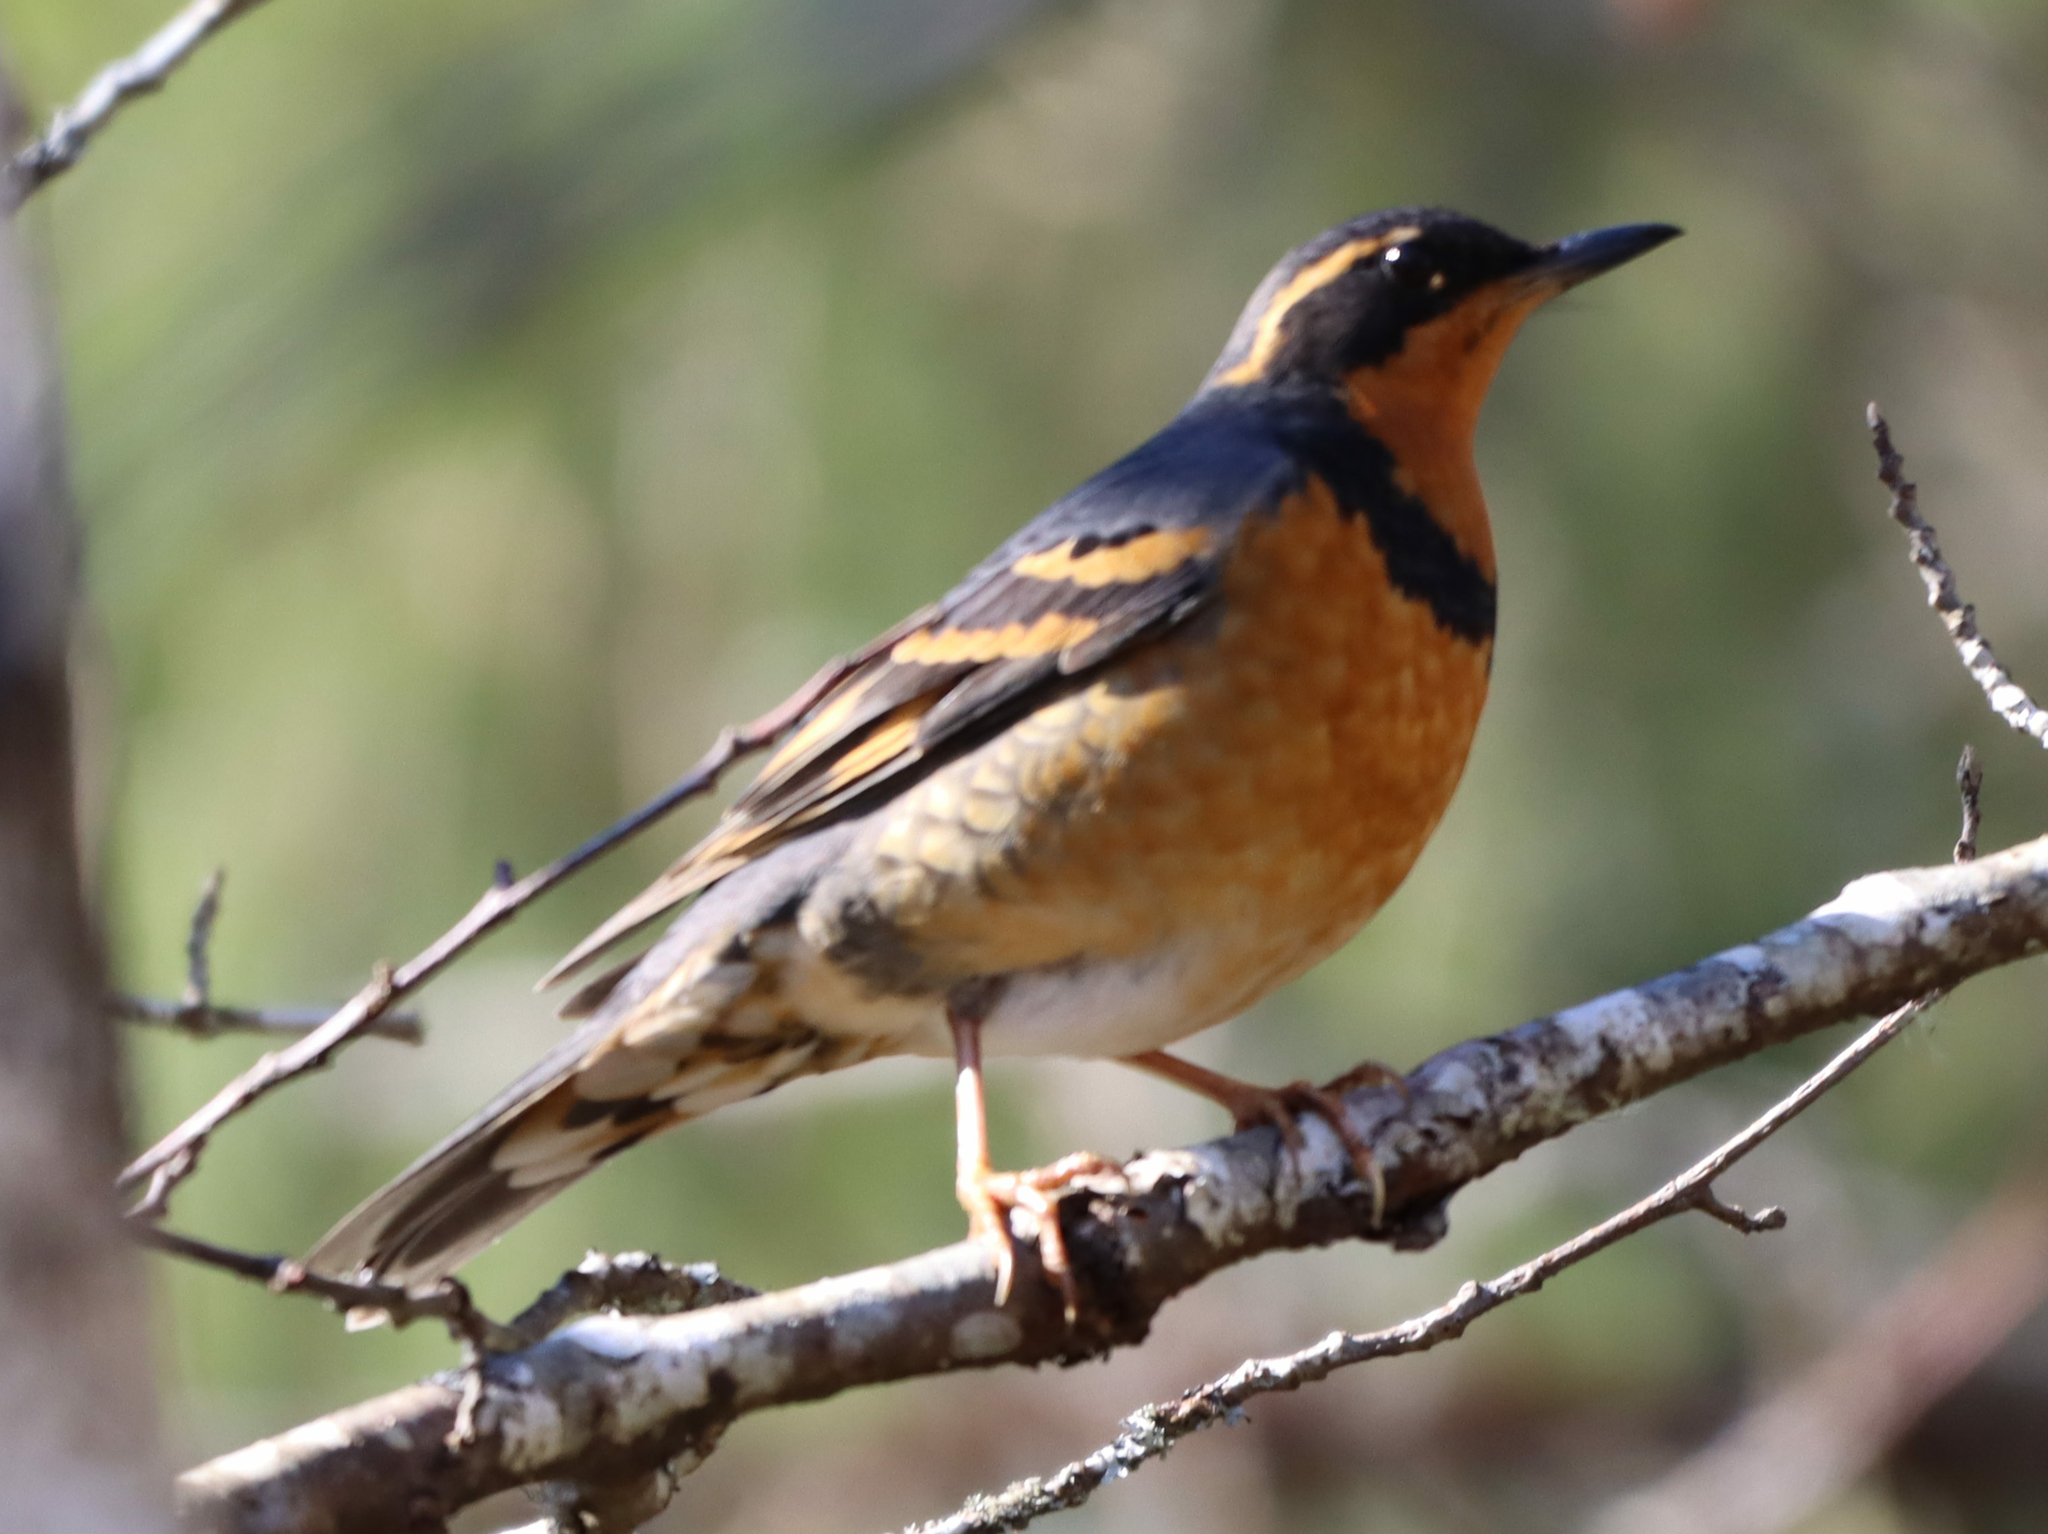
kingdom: Animalia
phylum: Chordata
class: Aves
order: Passeriformes
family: Turdidae
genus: Ixoreus
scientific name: Ixoreus naevius
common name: Varied thrush
